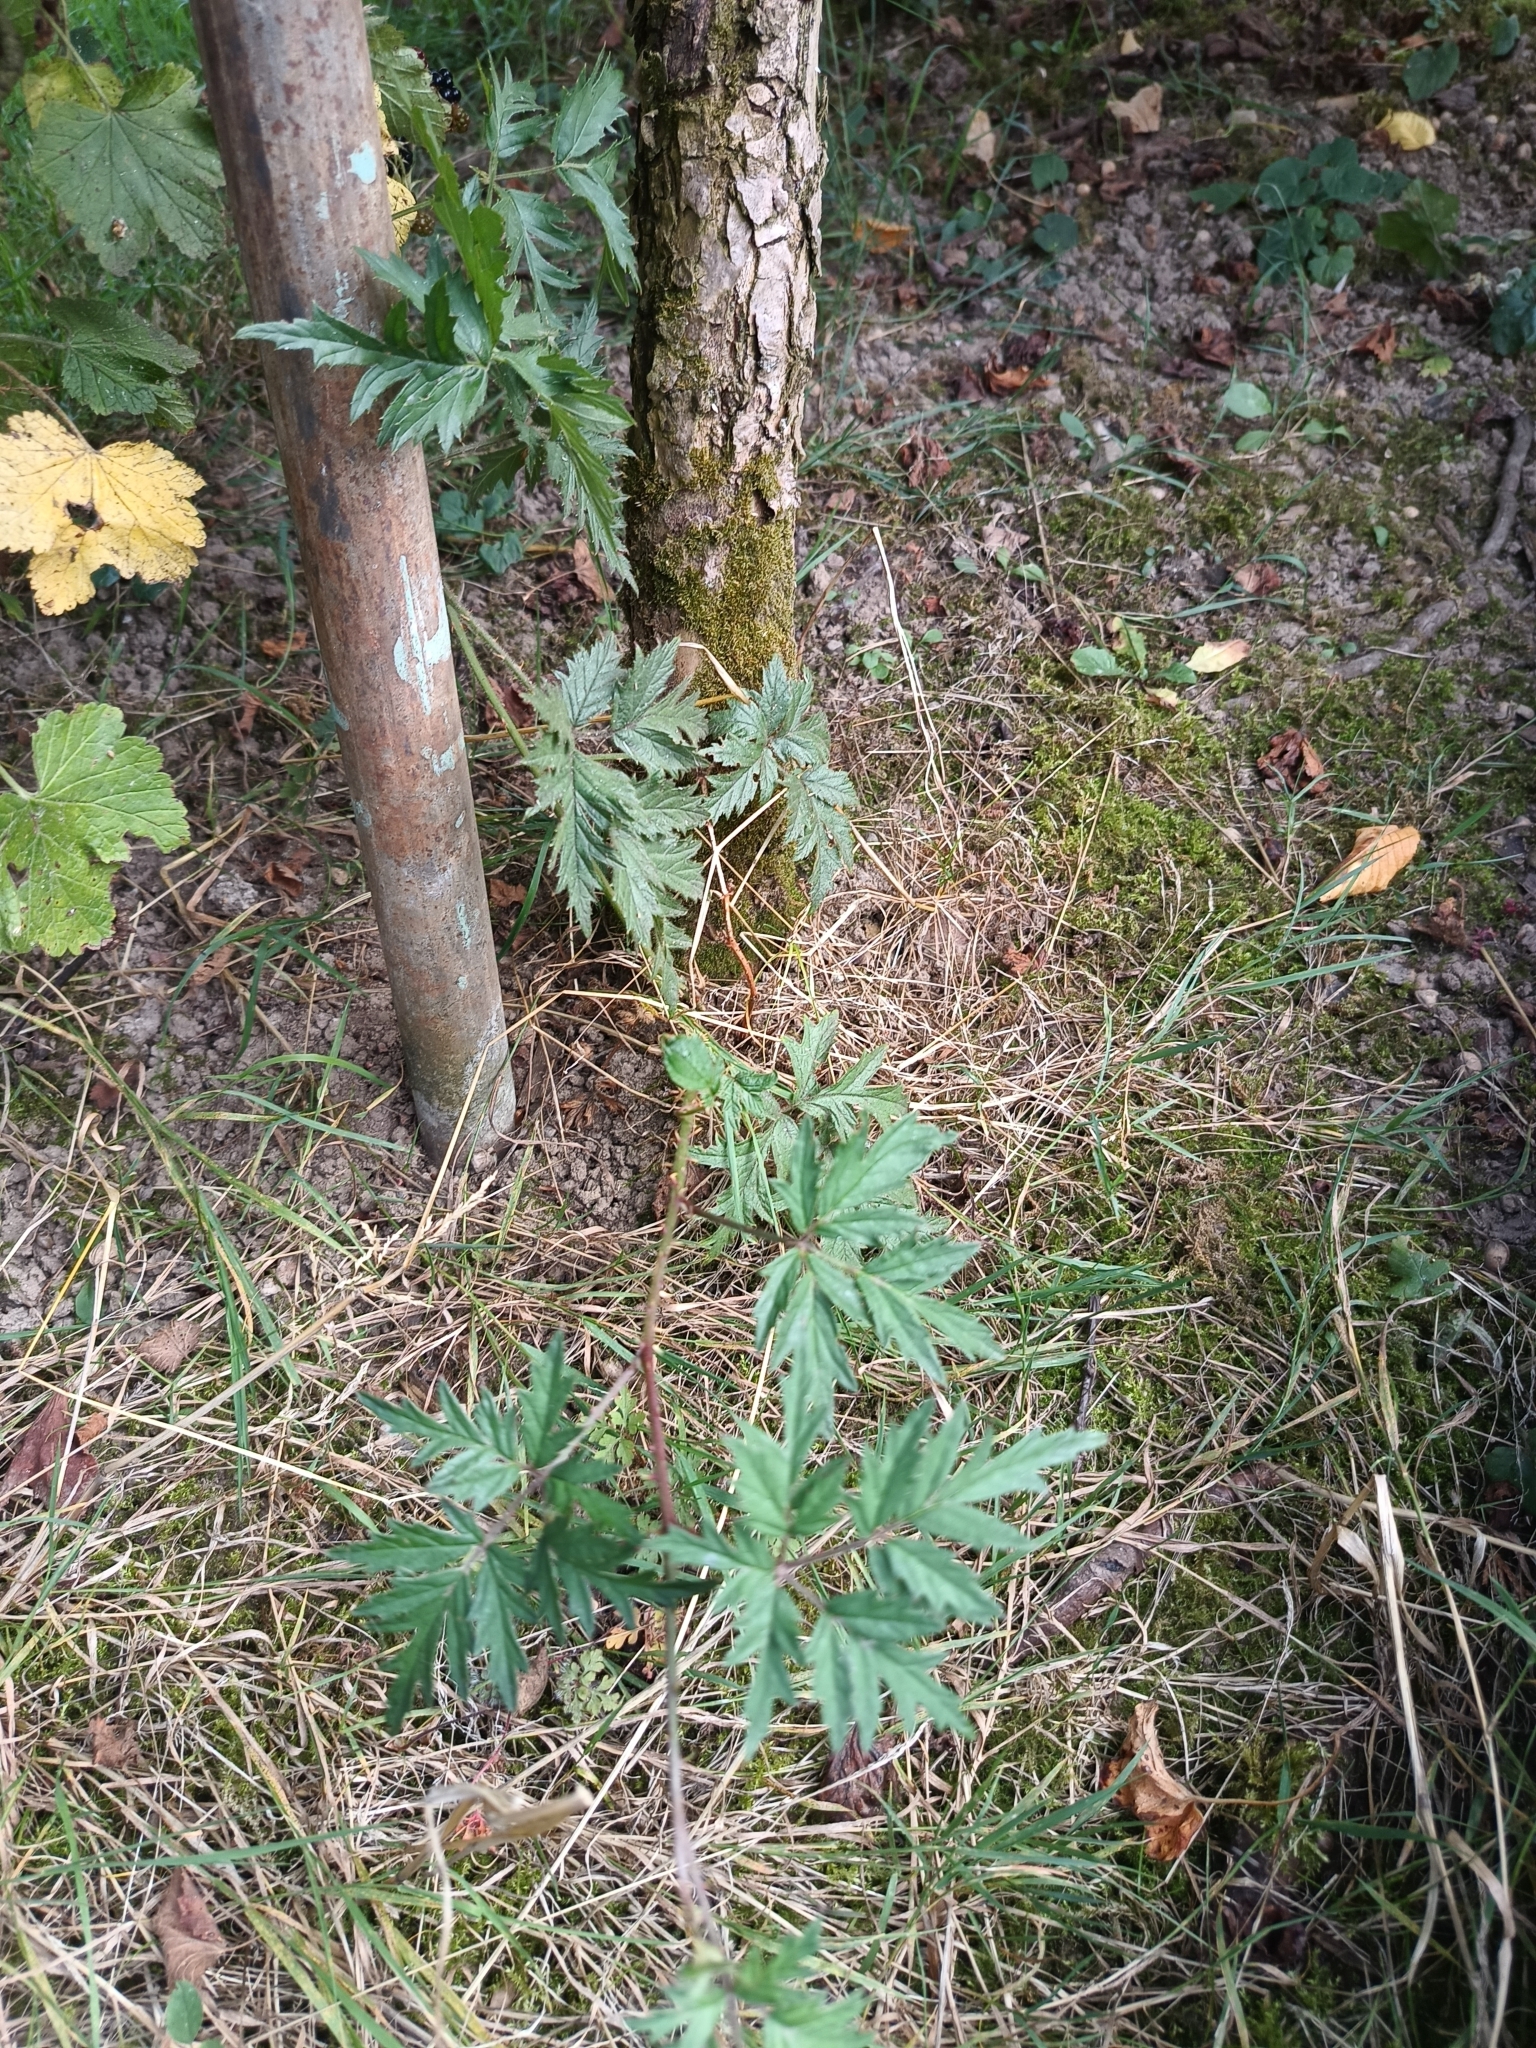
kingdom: Plantae
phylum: Tracheophyta
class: Magnoliopsida
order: Rosales
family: Rosaceae
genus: Rubus
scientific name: Rubus laciniatus
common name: Evergreen blackberry
